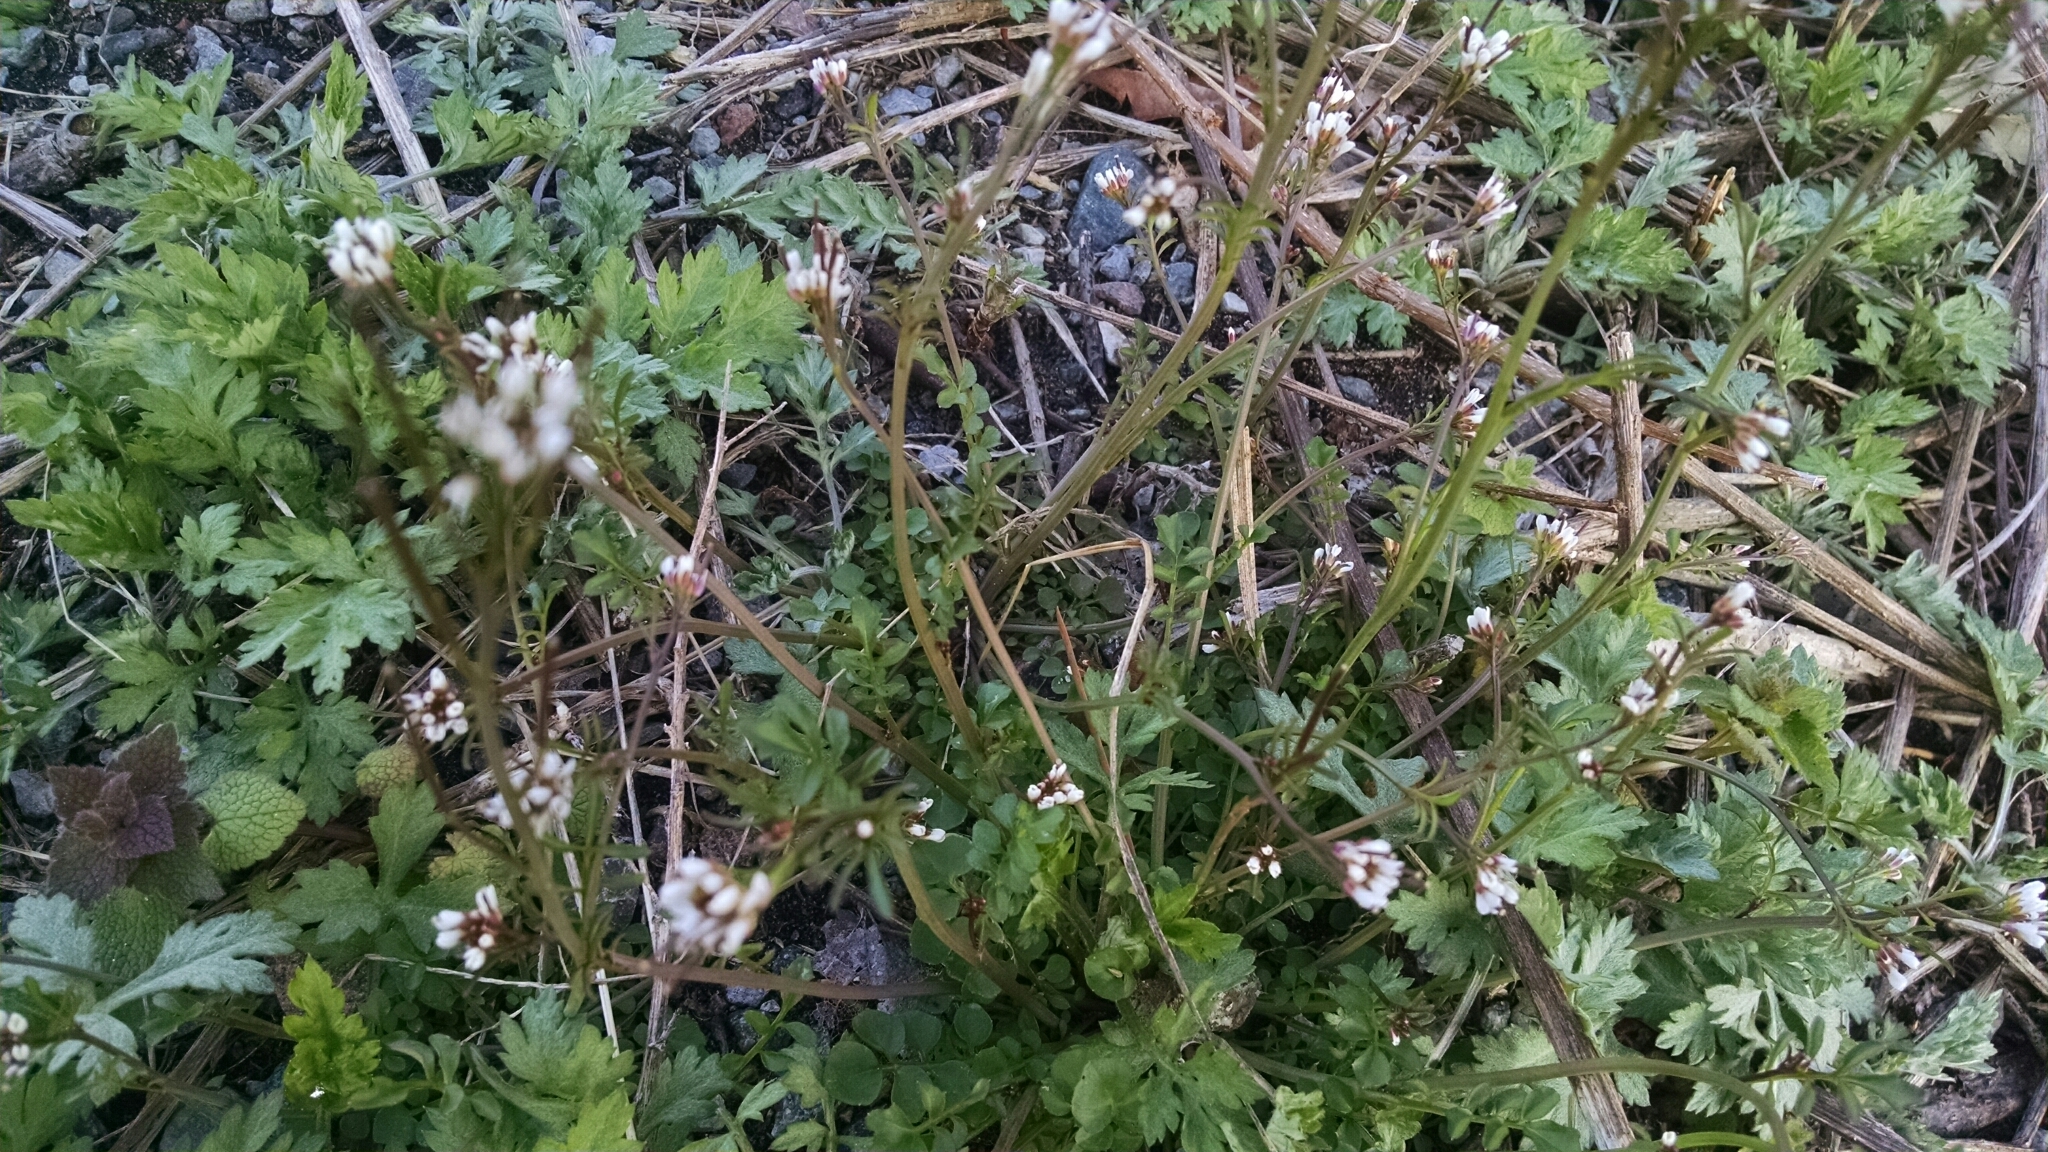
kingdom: Plantae
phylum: Tracheophyta
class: Magnoliopsida
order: Brassicales
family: Brassicaceae
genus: Cardamine
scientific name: Cardamine hirsuta
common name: Hairy bittercress
